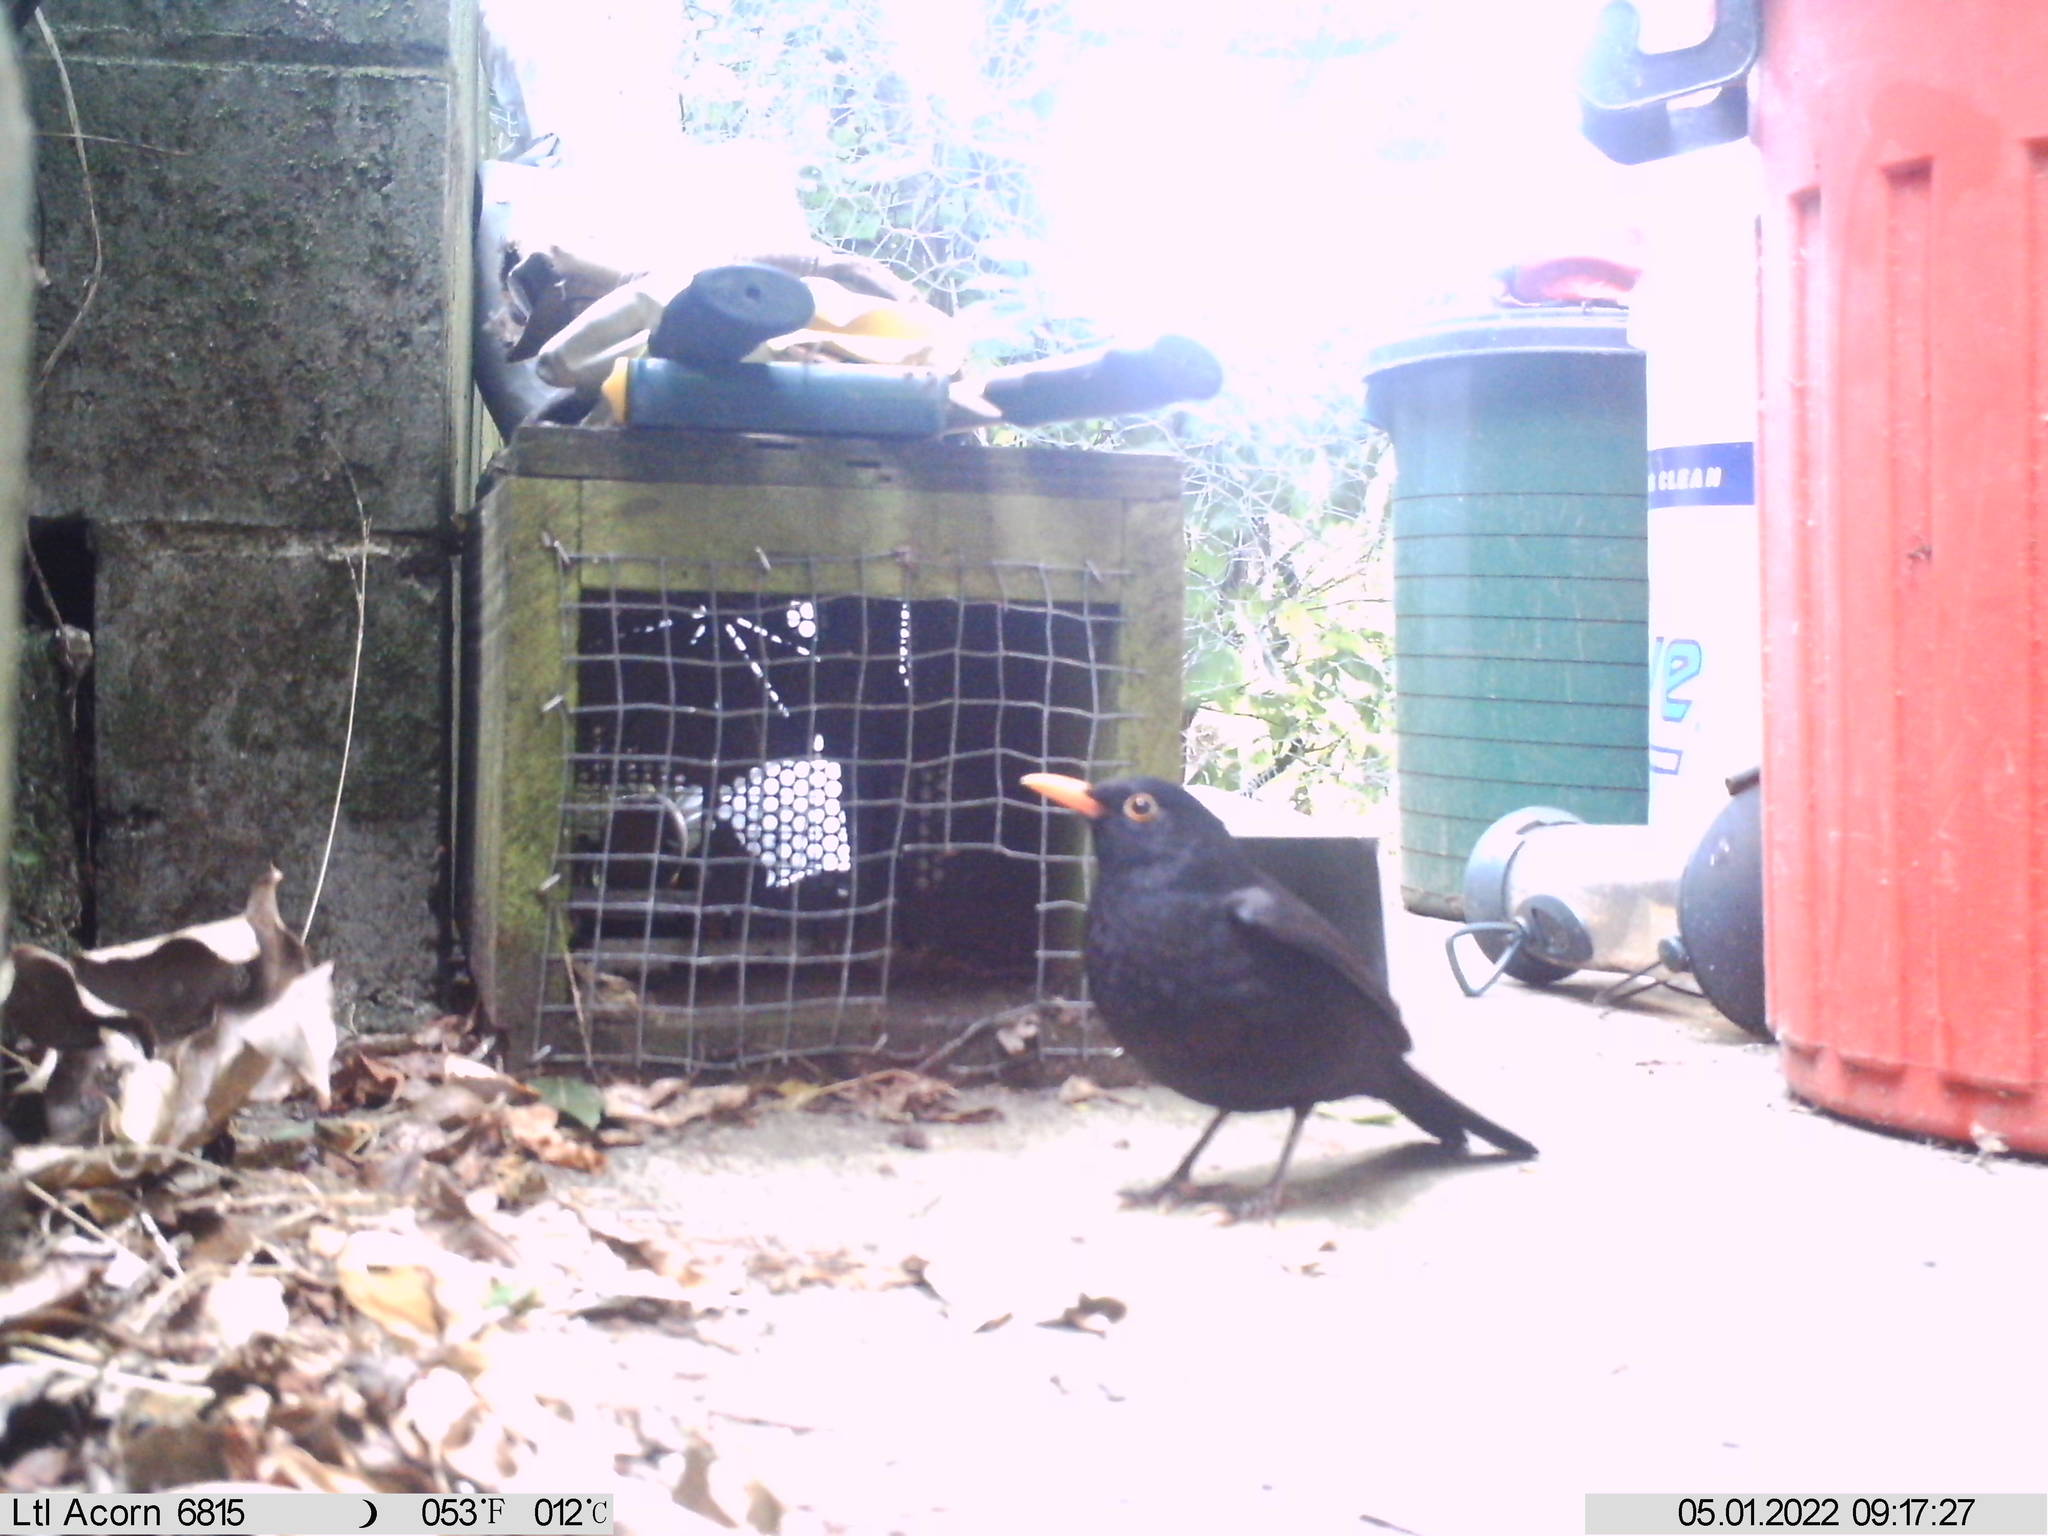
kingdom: Animalia
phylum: Chordata
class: Aves
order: Passeriformes
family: Turdidae
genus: Turdus
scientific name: Turdus merula
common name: Common blackbird
